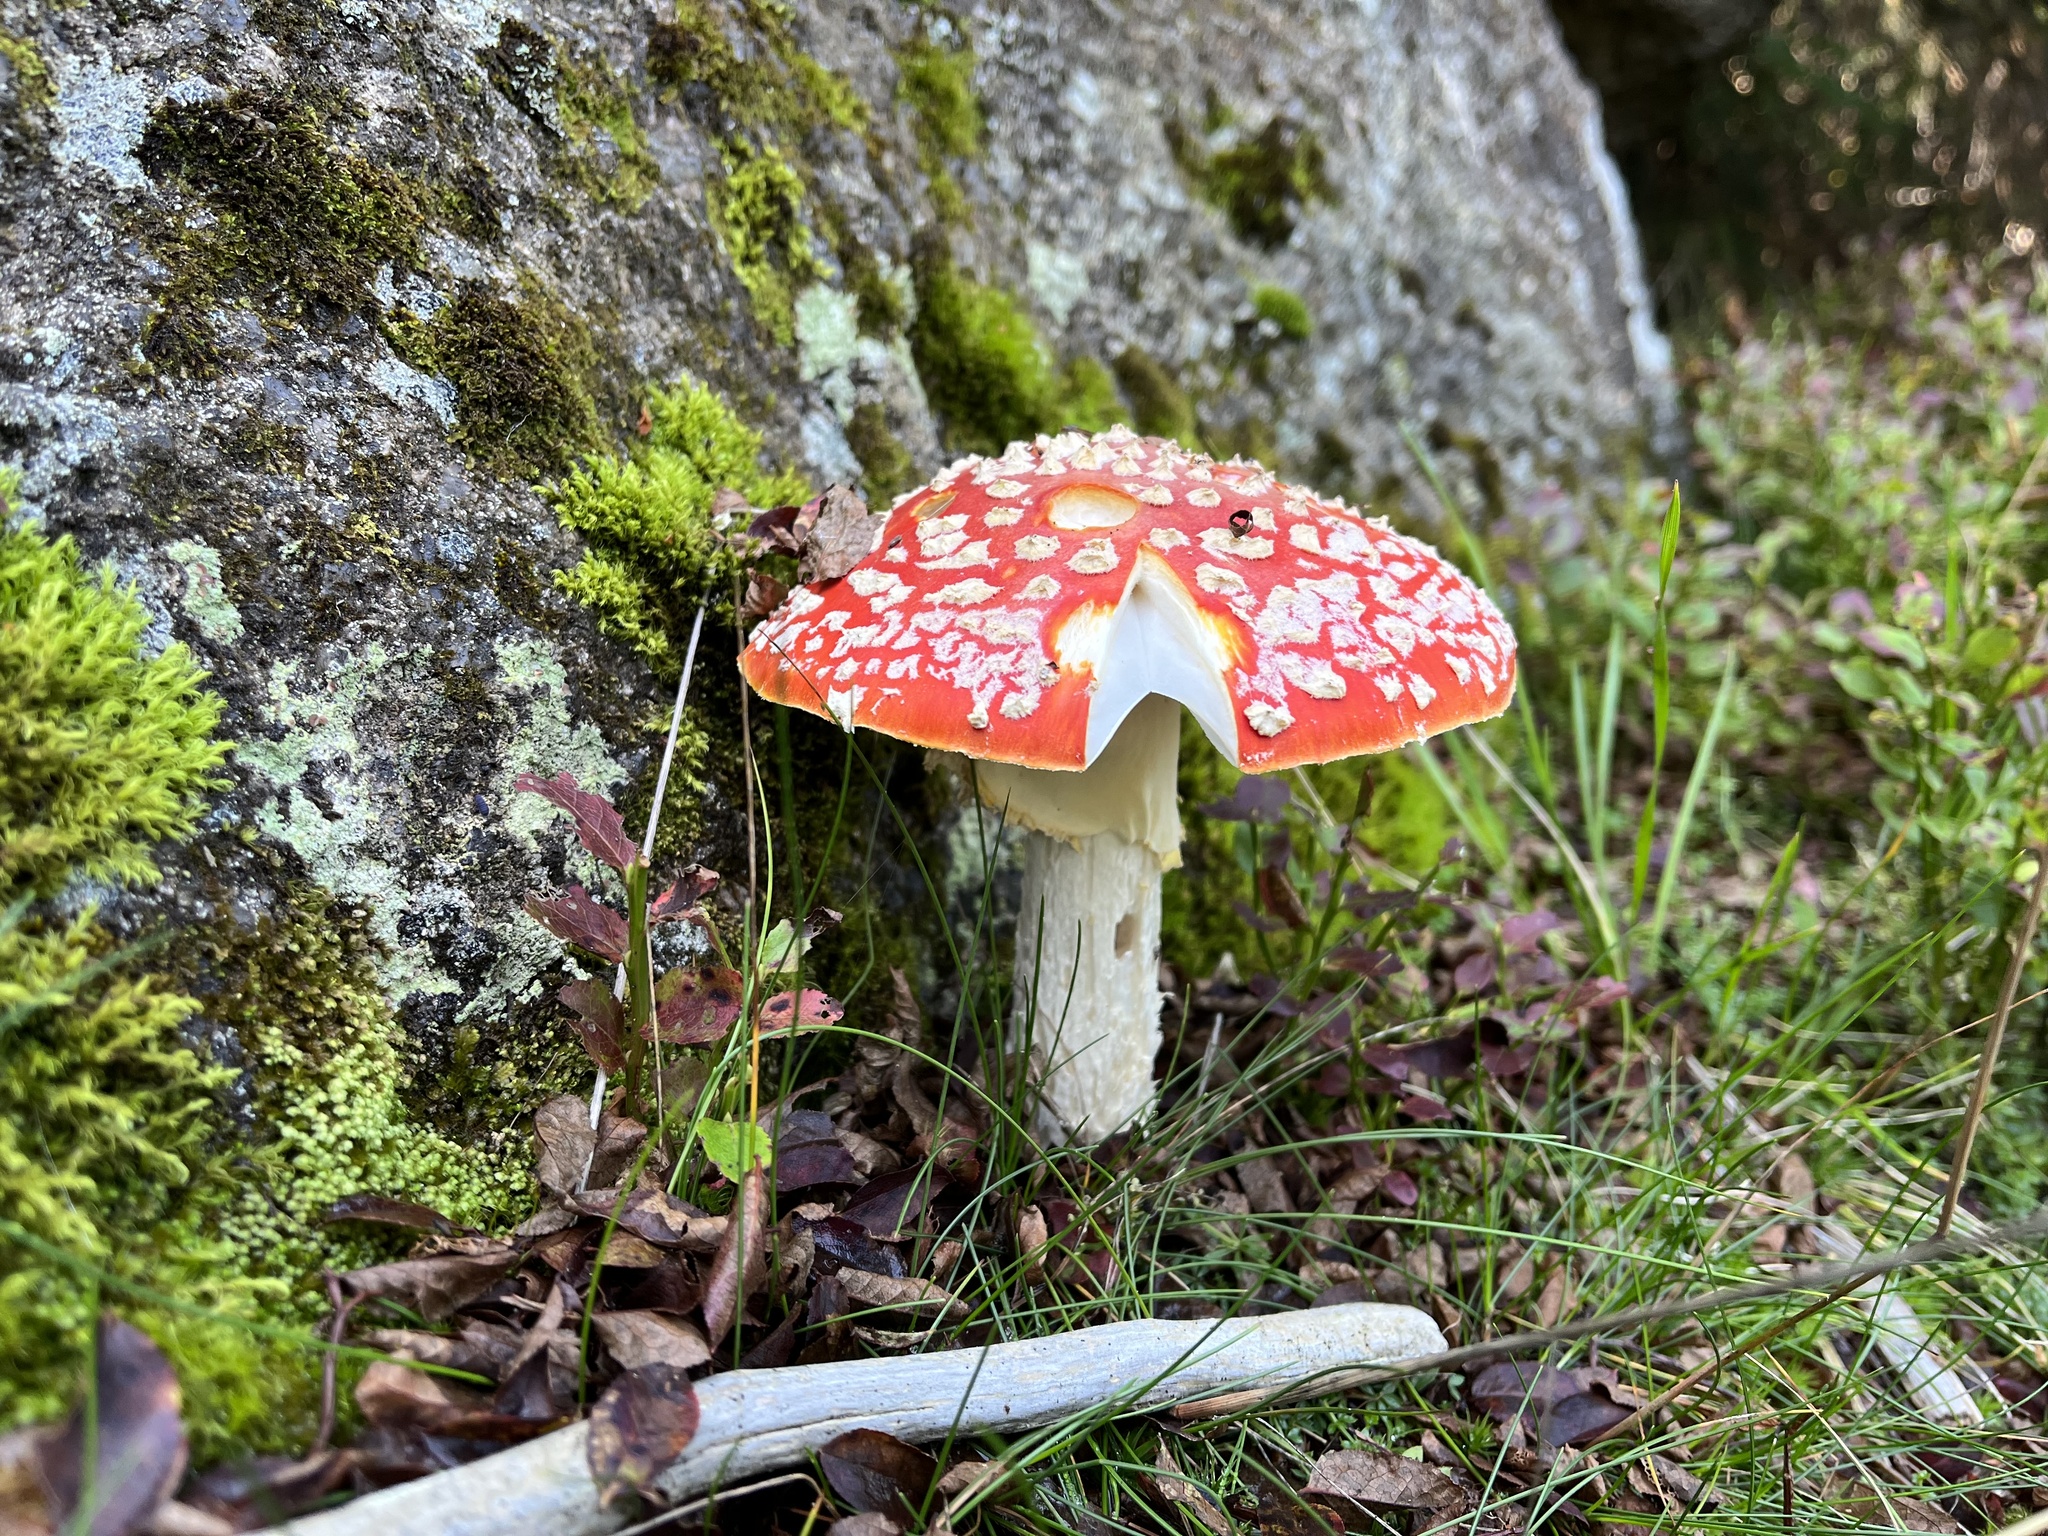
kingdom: Fungi
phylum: Basidiomycota
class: Agaricomycetes
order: Agaricales
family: Amanitaceae
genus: Amanita
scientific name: Amanita muscaria
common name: Fly agaric
